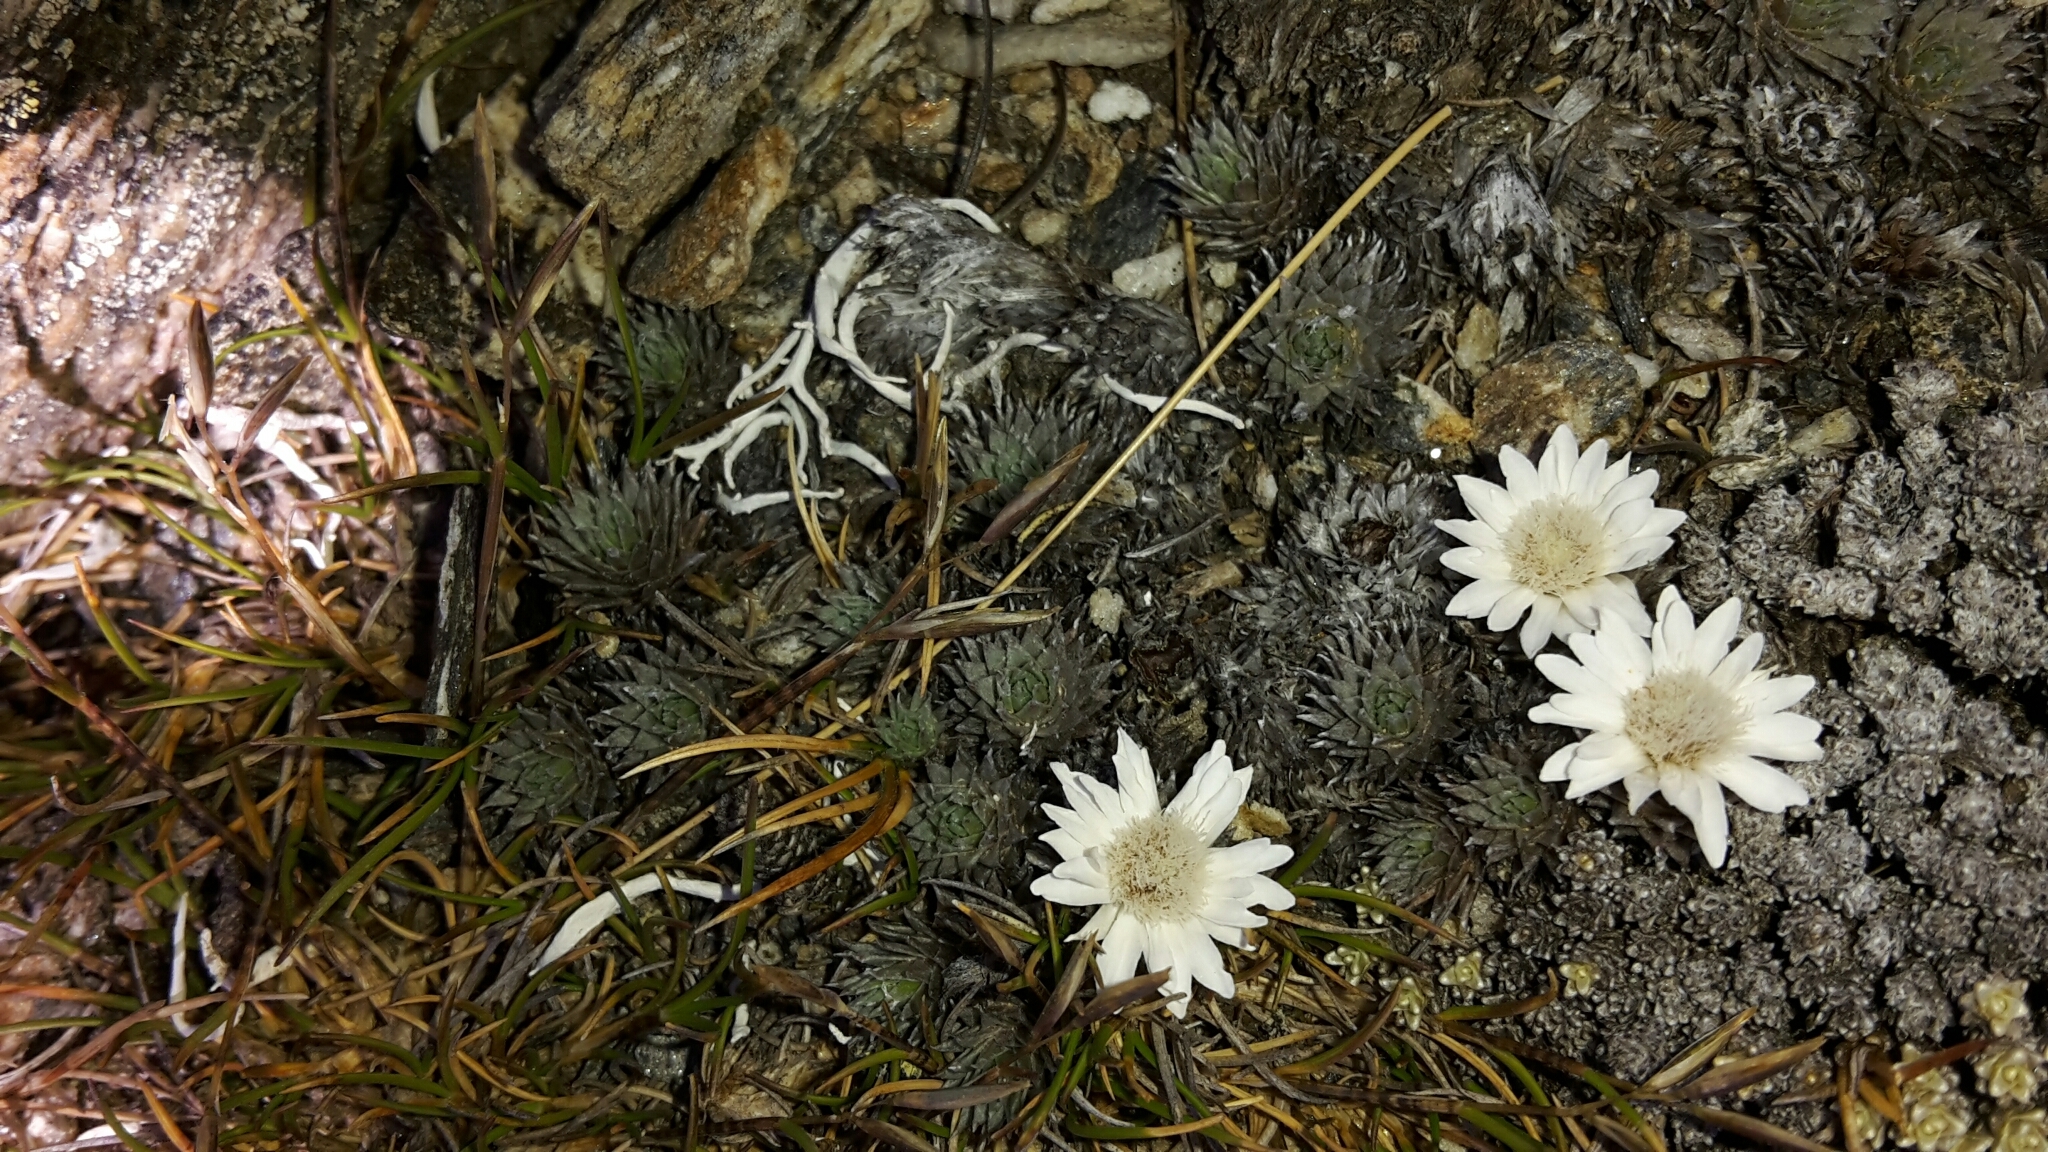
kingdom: Plantae
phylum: Tracheophyta
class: Magnoliopsida
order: Asterales
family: Asteraceae
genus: Raoulia
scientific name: Raoulia grandiflora
